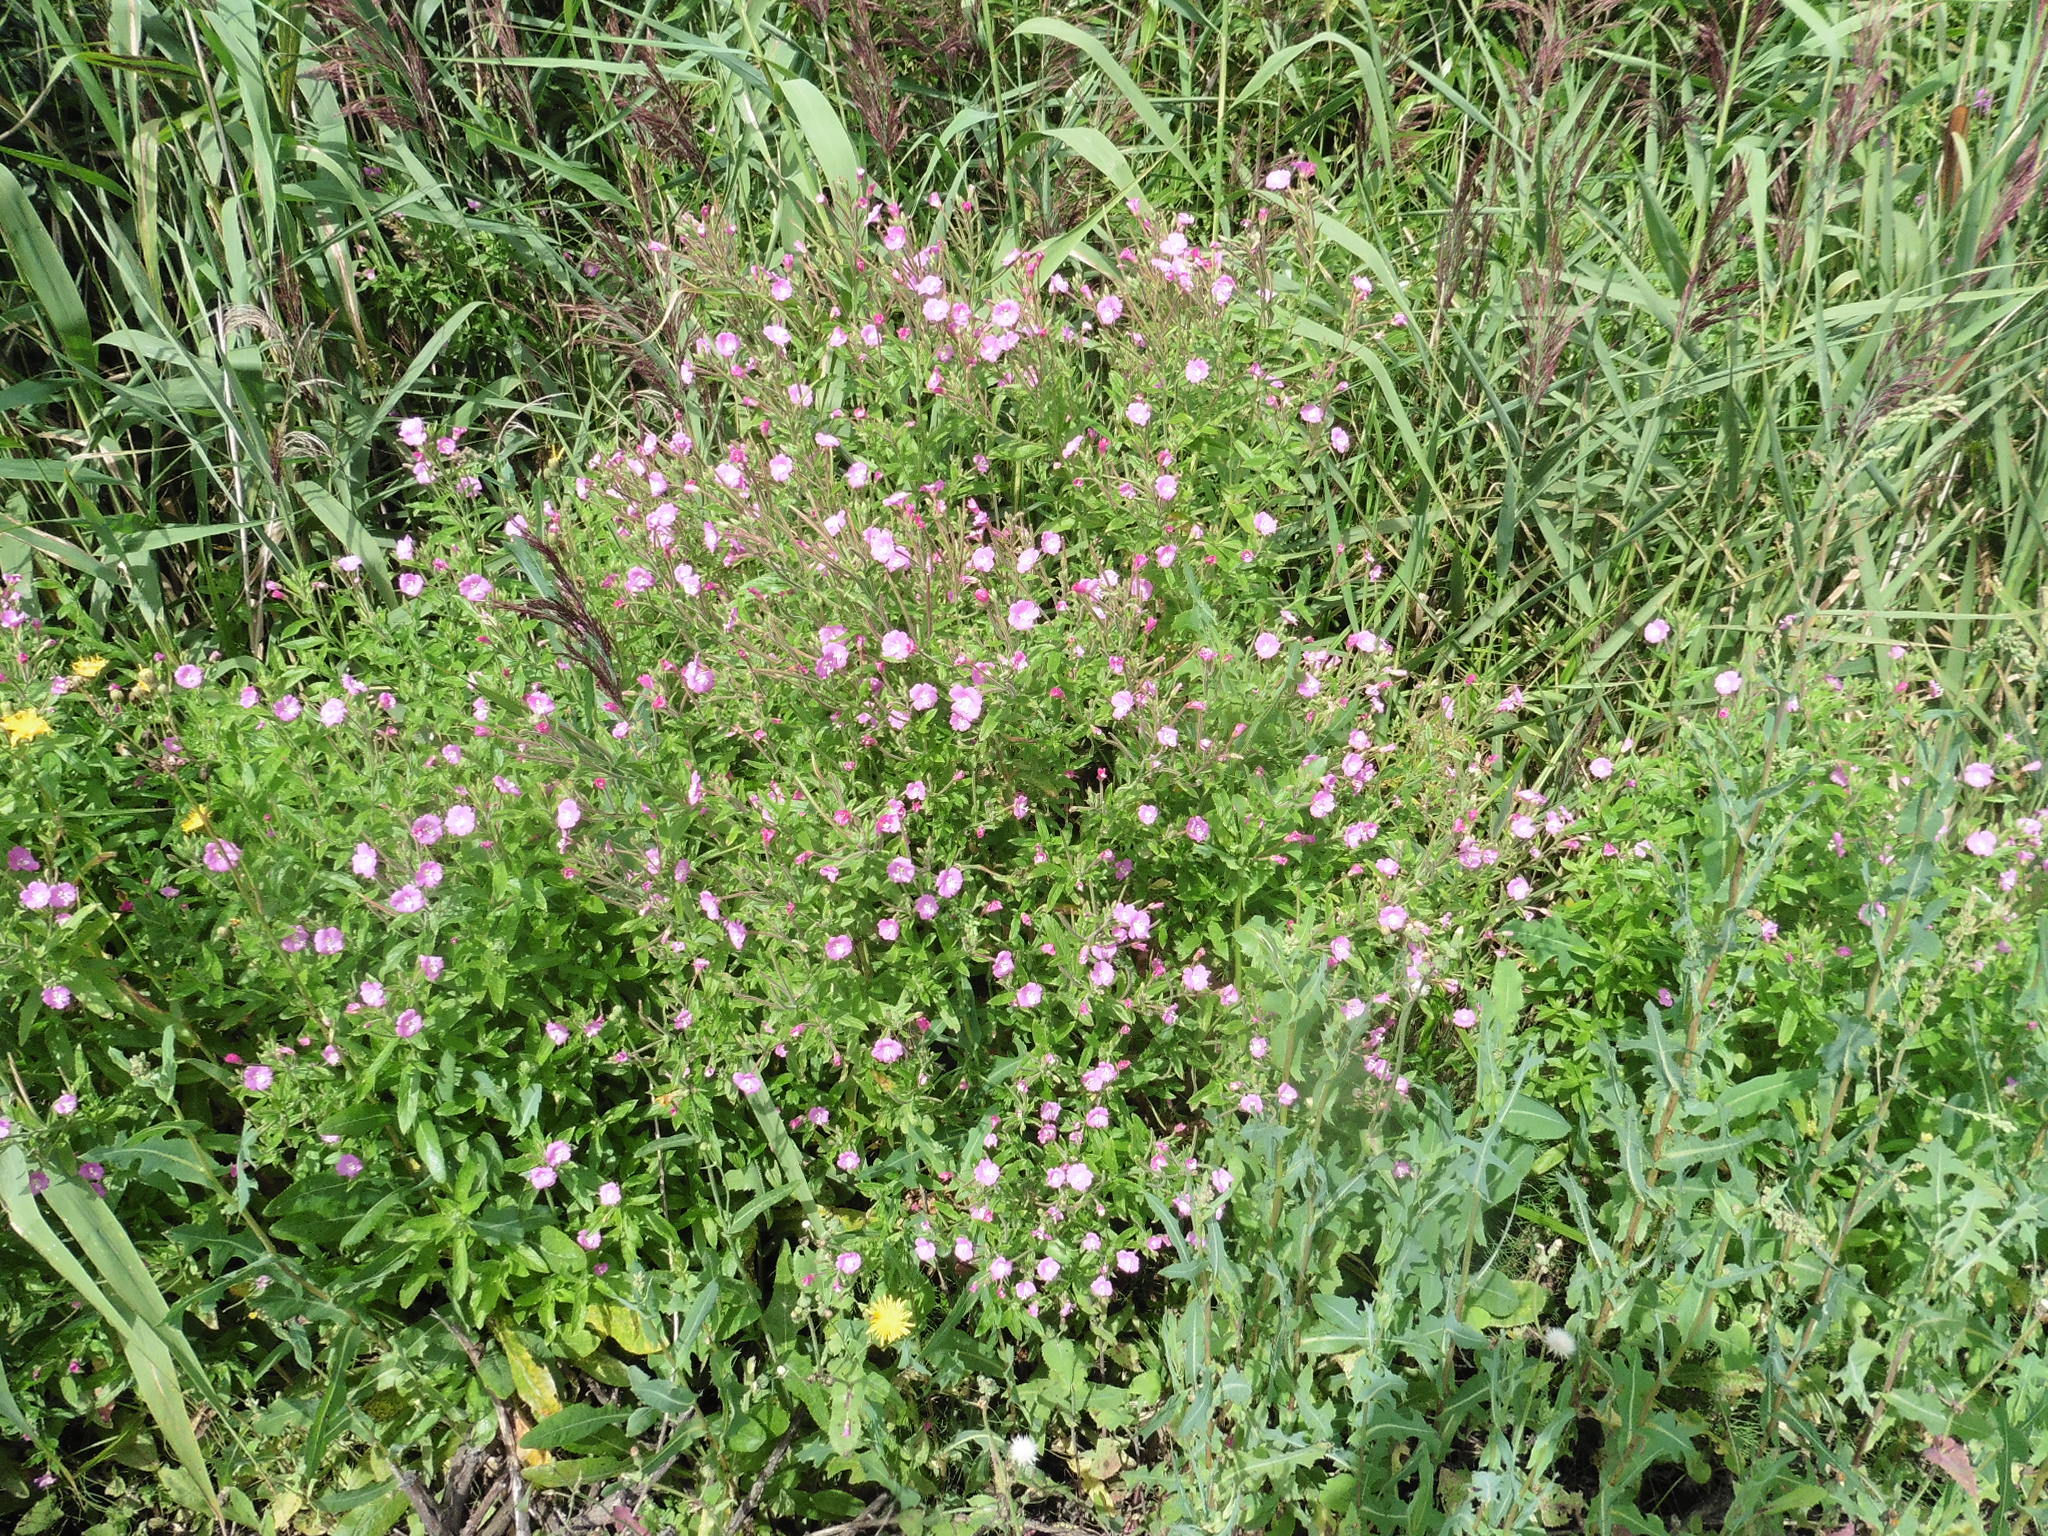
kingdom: Plantae
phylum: Tracheophyta
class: Magnoliopsida
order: Myrtales
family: Onagraceae
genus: Epilobium
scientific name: Epilobium hirsutum
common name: Great willowherb
